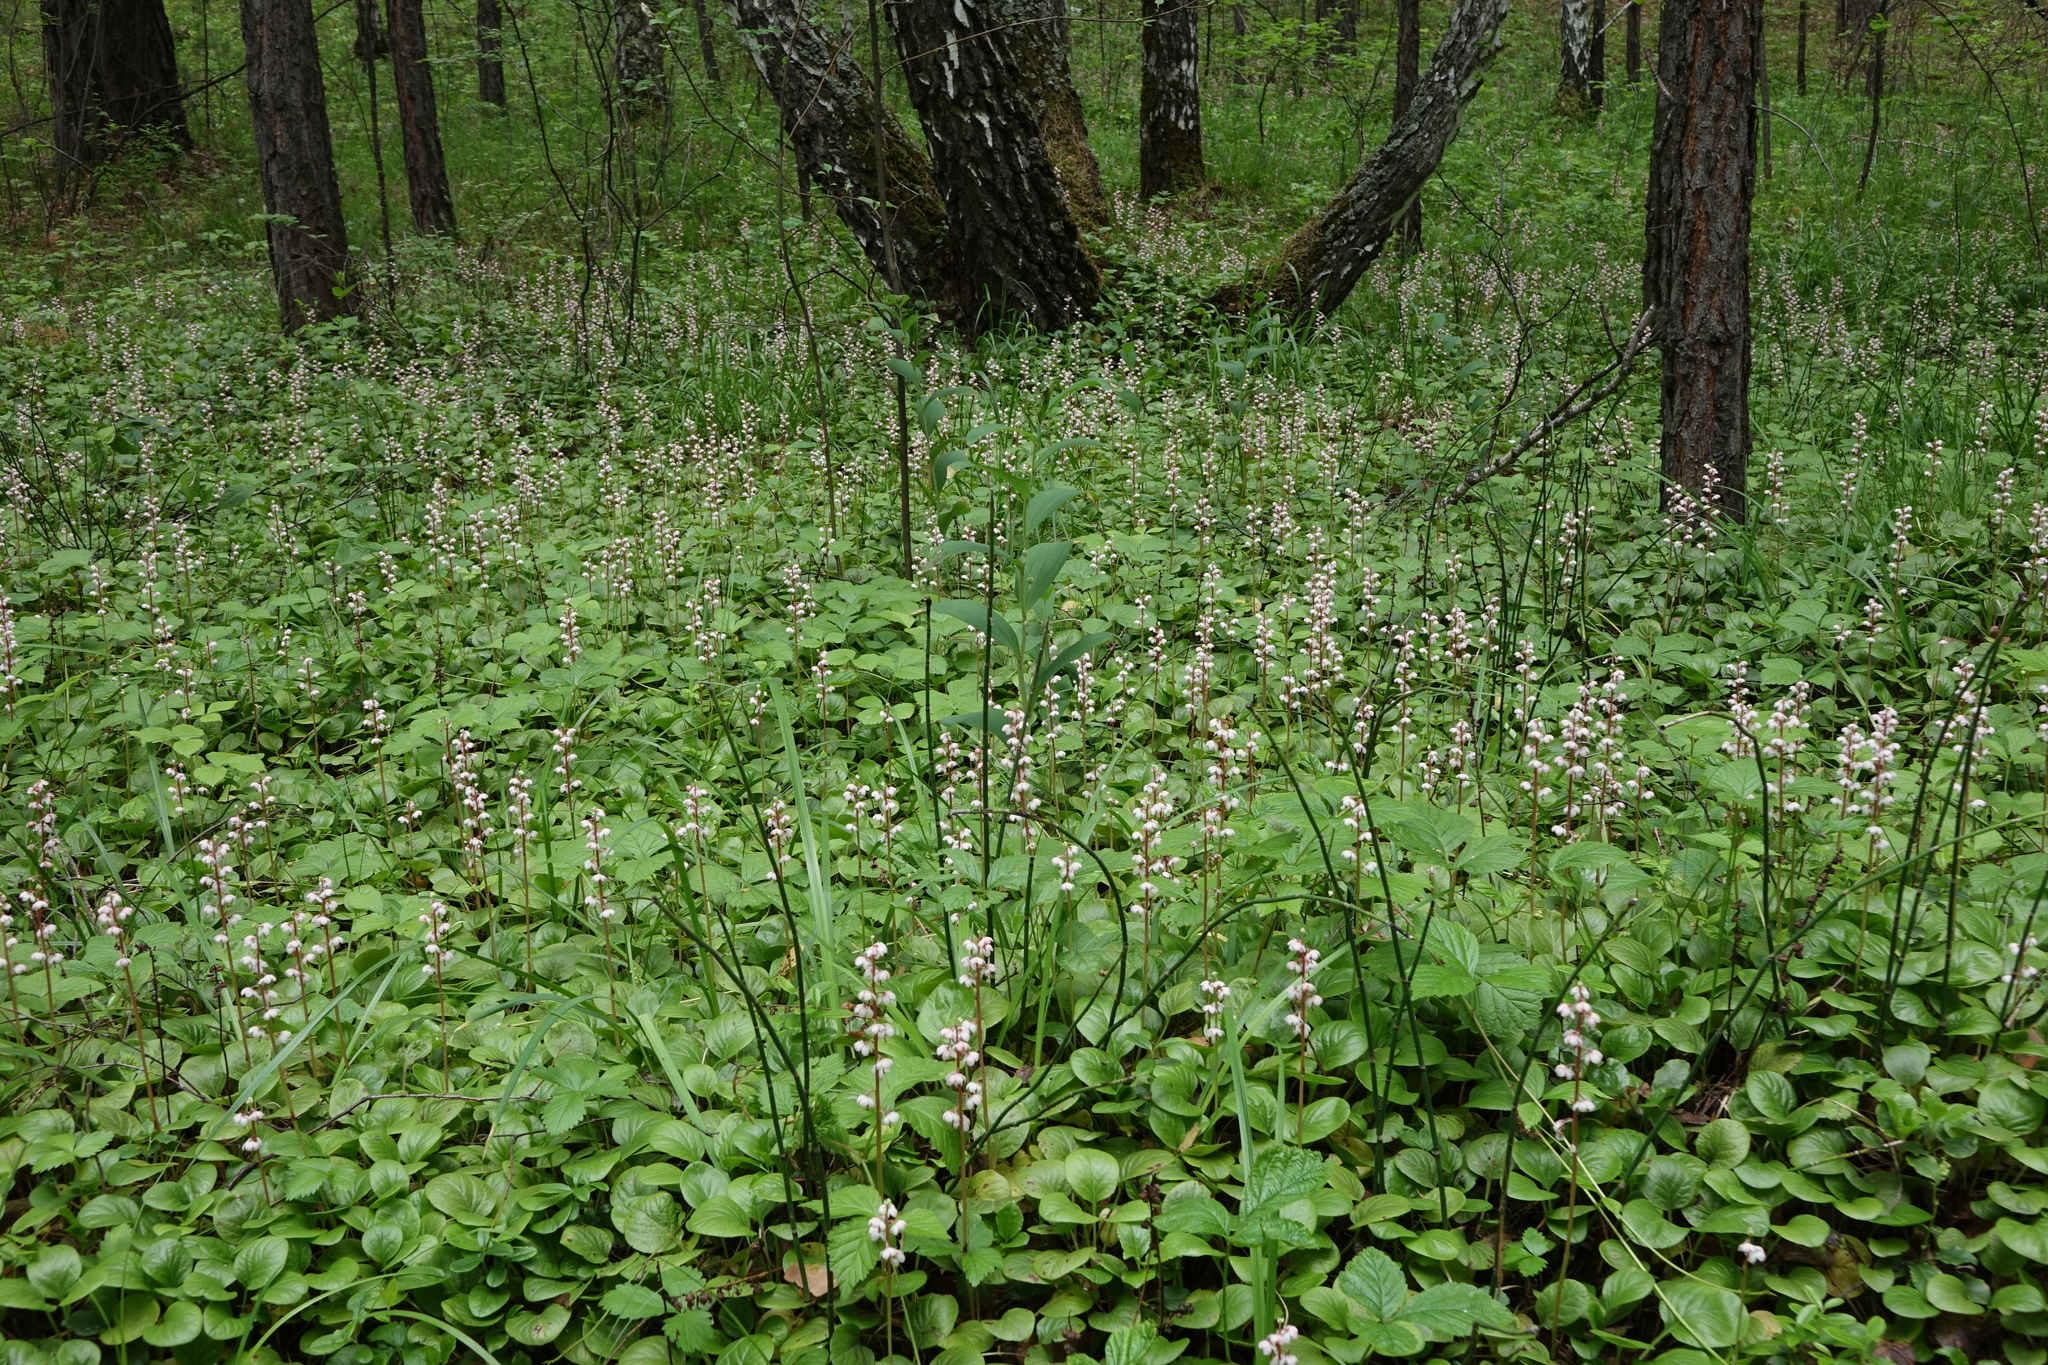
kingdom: Plantae
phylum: Tracheophyta
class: Magnoliopsida
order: Ericales
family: Ericaceae
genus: Pyrola
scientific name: Pyrola asarifolia
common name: Bog wintergreen
